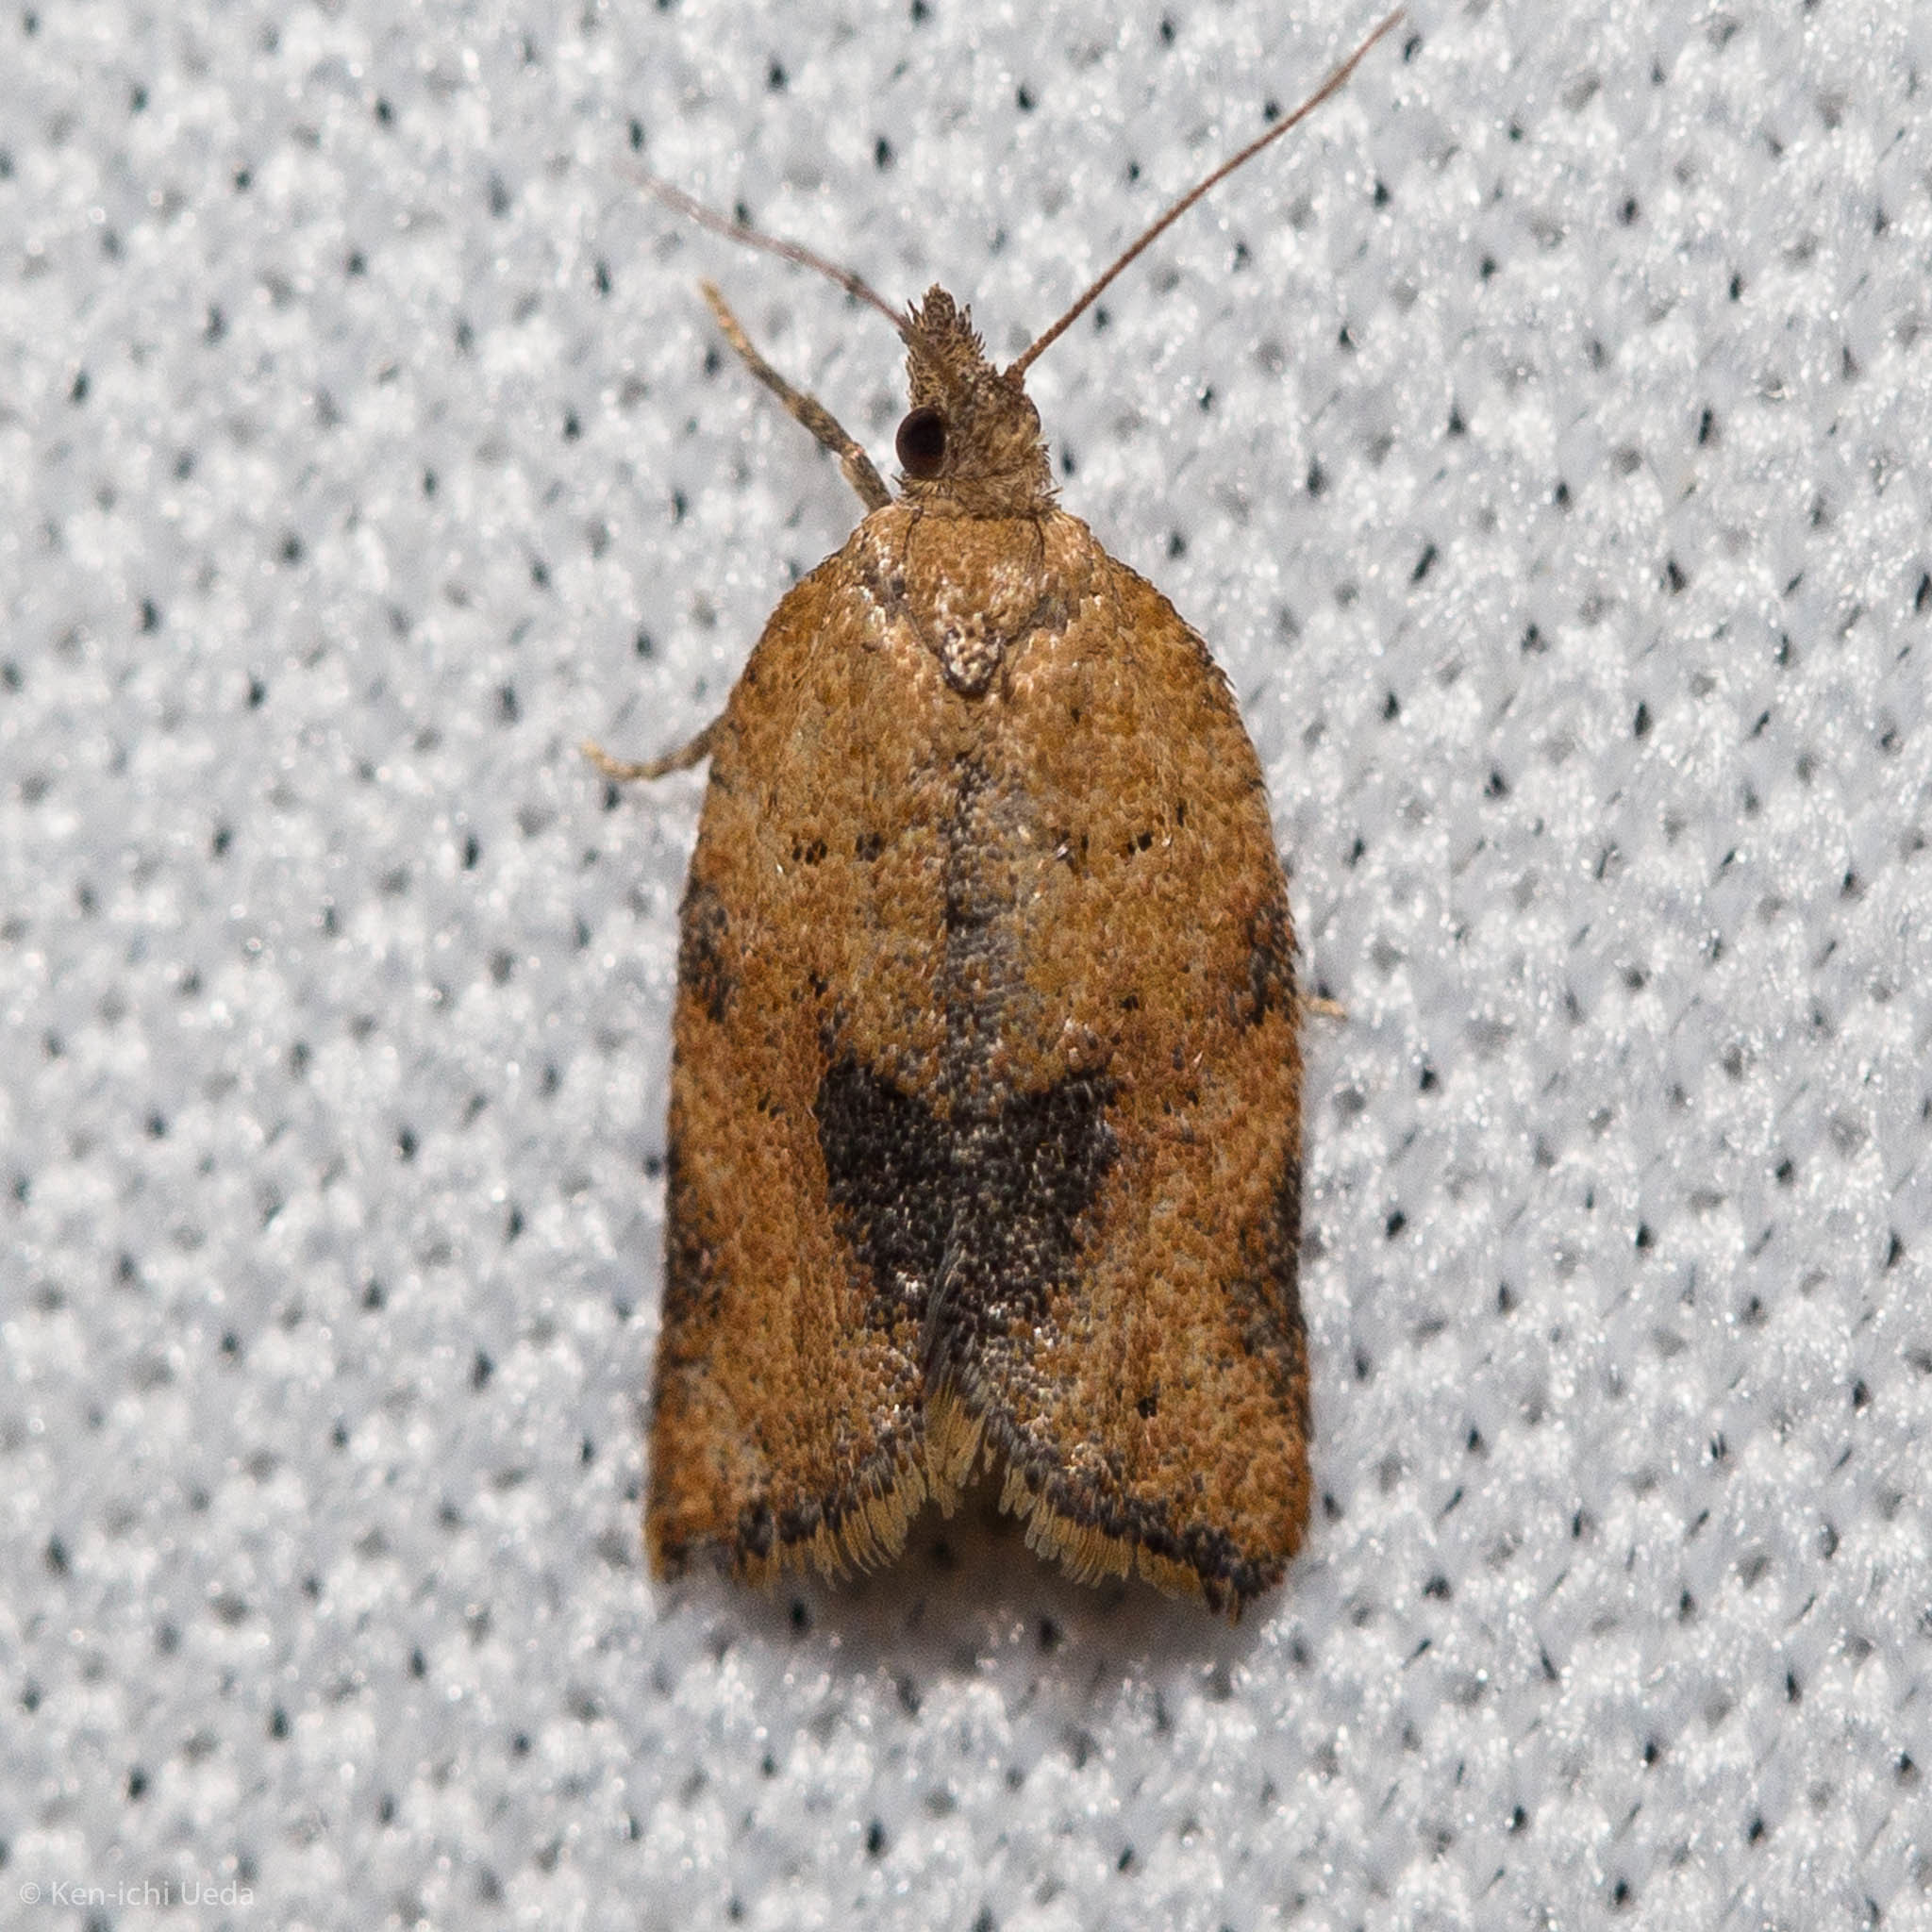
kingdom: Animalia
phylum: Arthropoda
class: Insecta
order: Lepidoptera
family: Tortricidae
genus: Clepsis
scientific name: Clepsis peritana
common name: Garden tortrix
